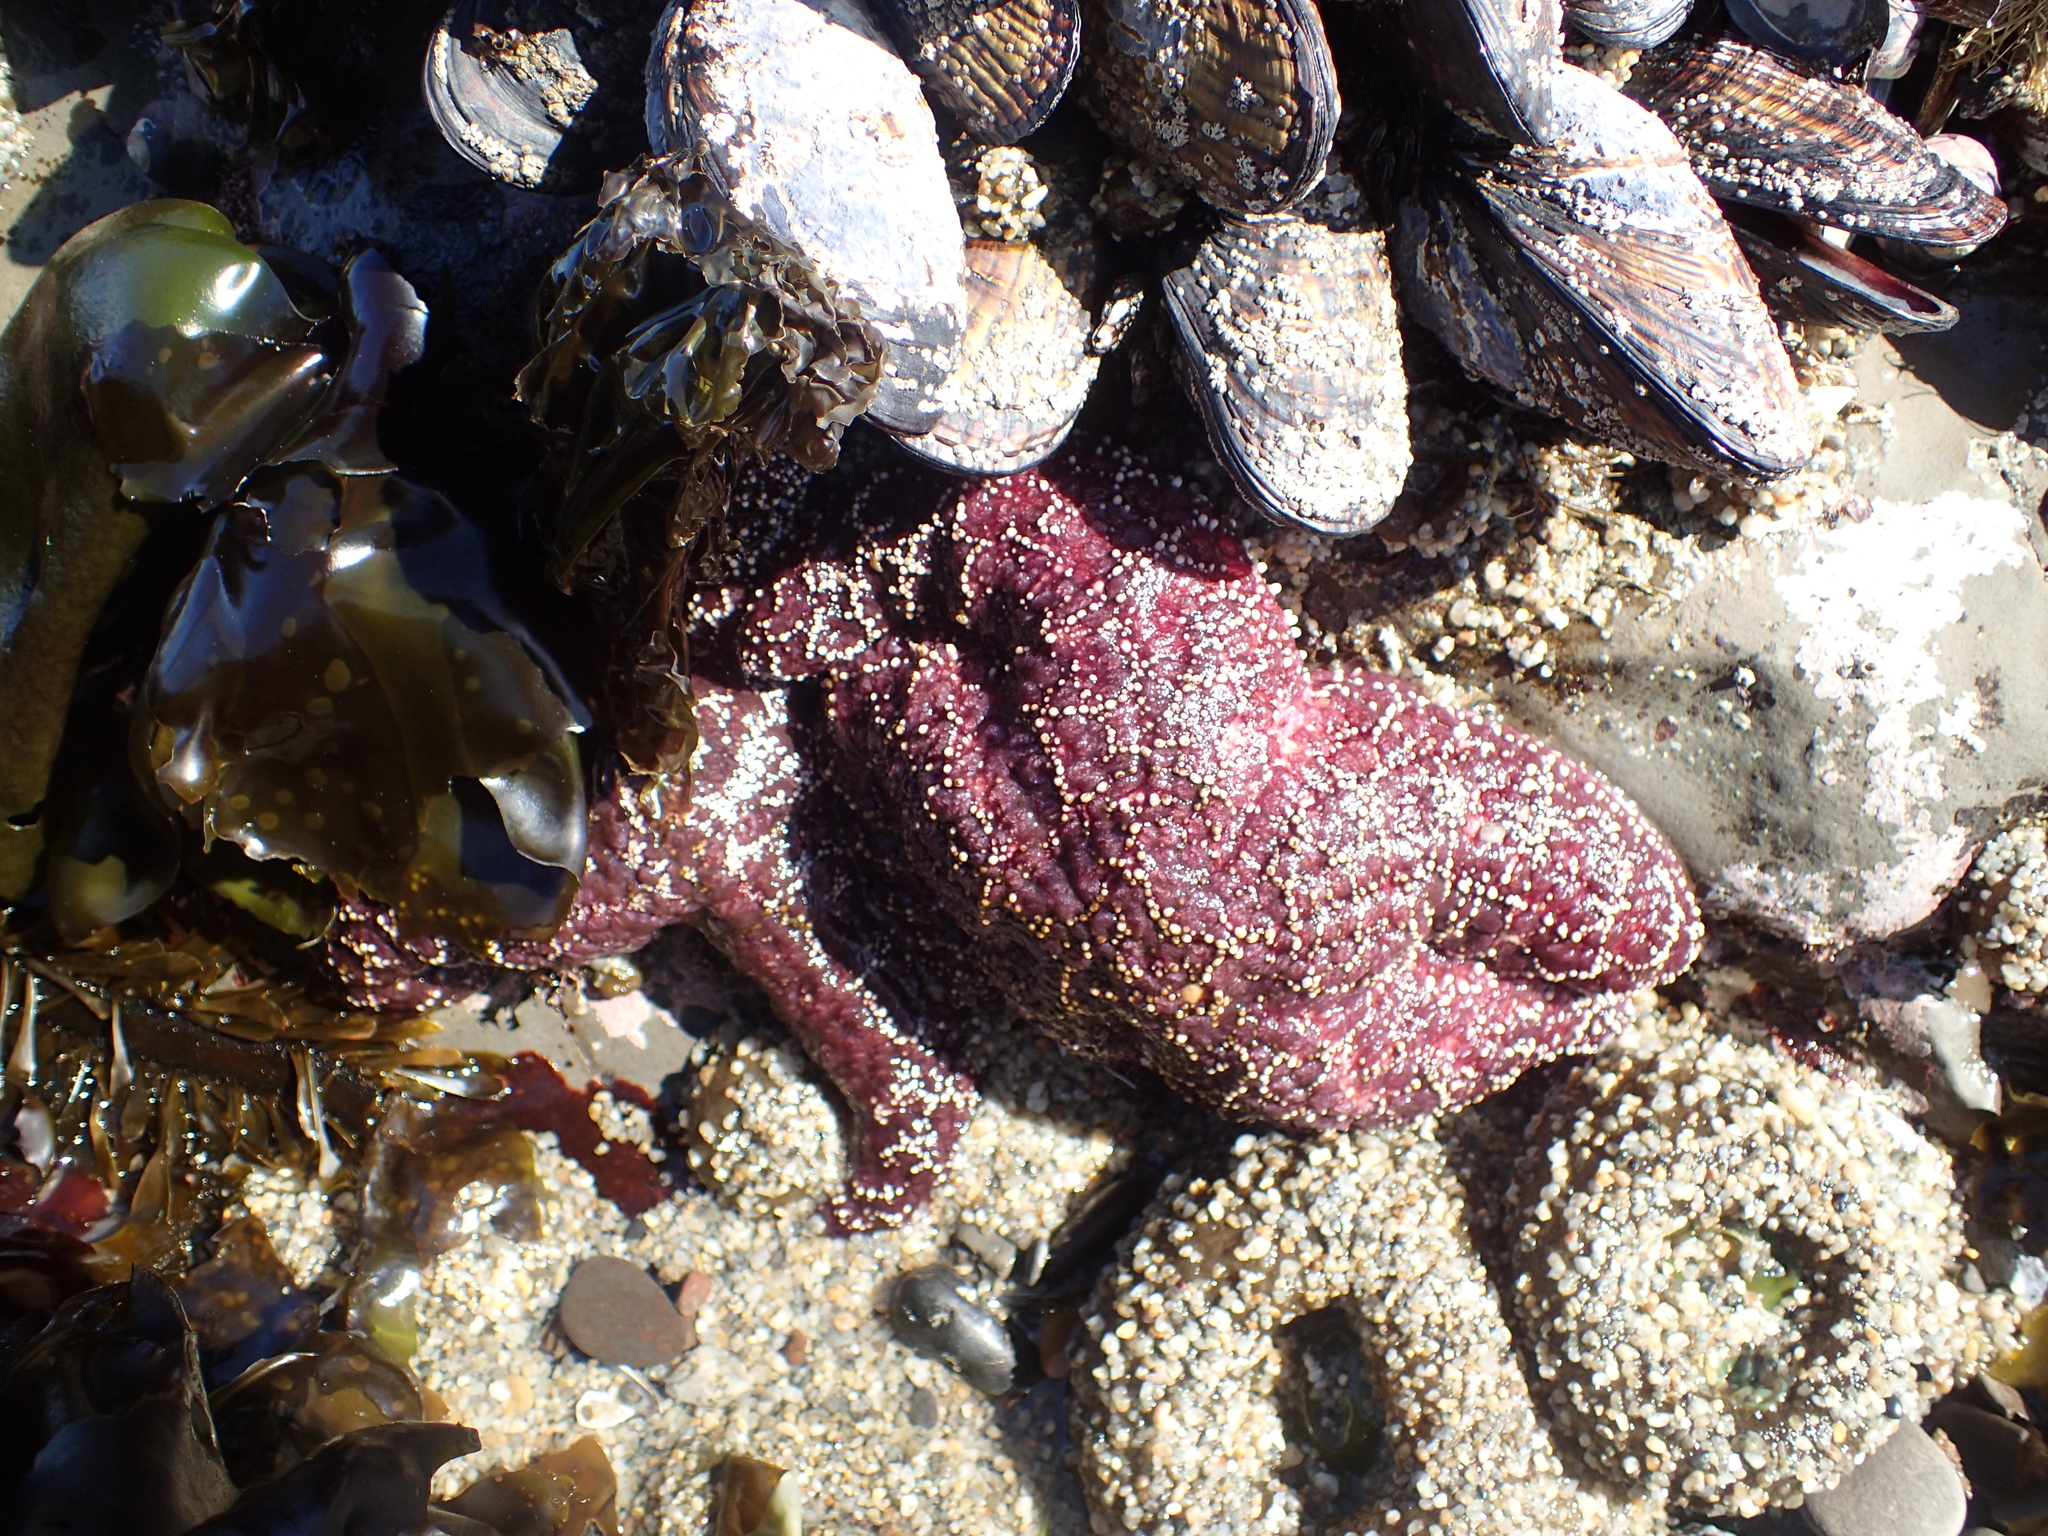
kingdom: Animalia
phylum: Echinodermata
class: Asteroidea
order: Forcipulatida
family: Asteriidae
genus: Pisaster
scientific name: Pisaster ochraceus
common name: Ochre stars
